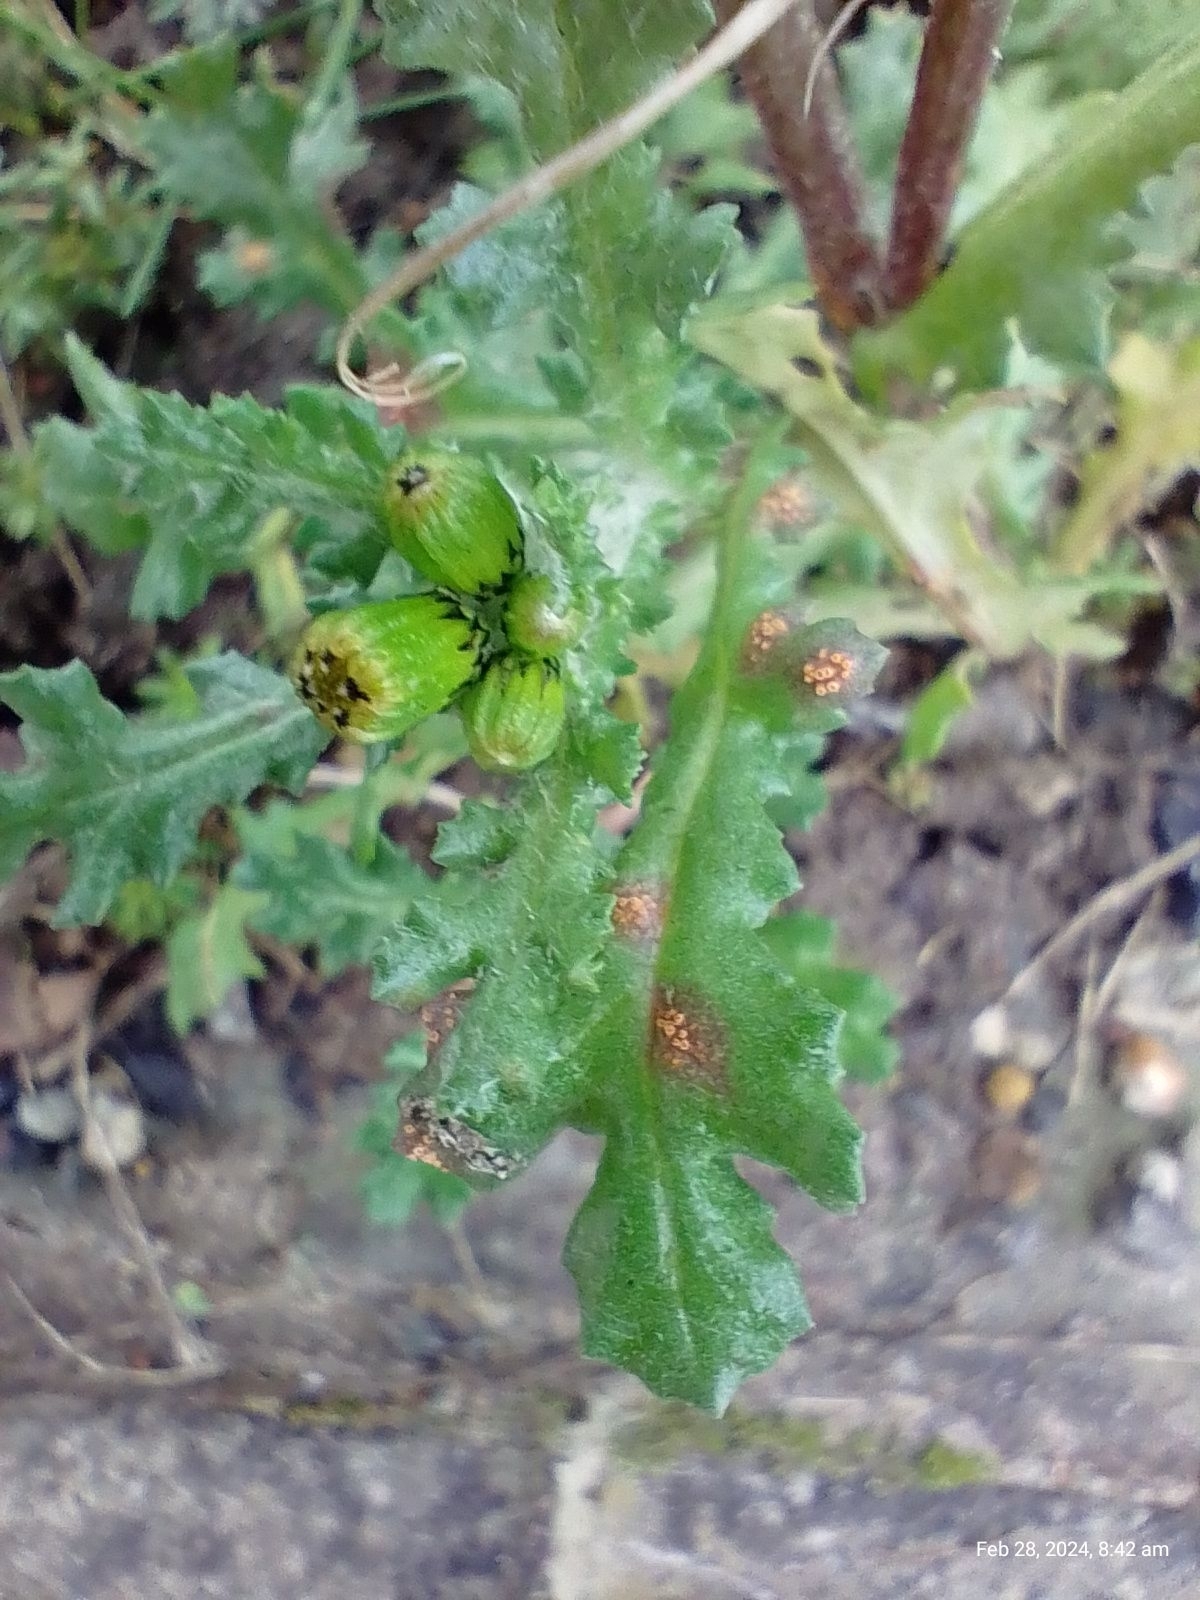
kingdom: Fungi
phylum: Basidiomycota
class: Pucciniomycetes
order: Pucciniales
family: Pucciniaceae
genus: Puccinia
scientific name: Puccinia lagenophorae
